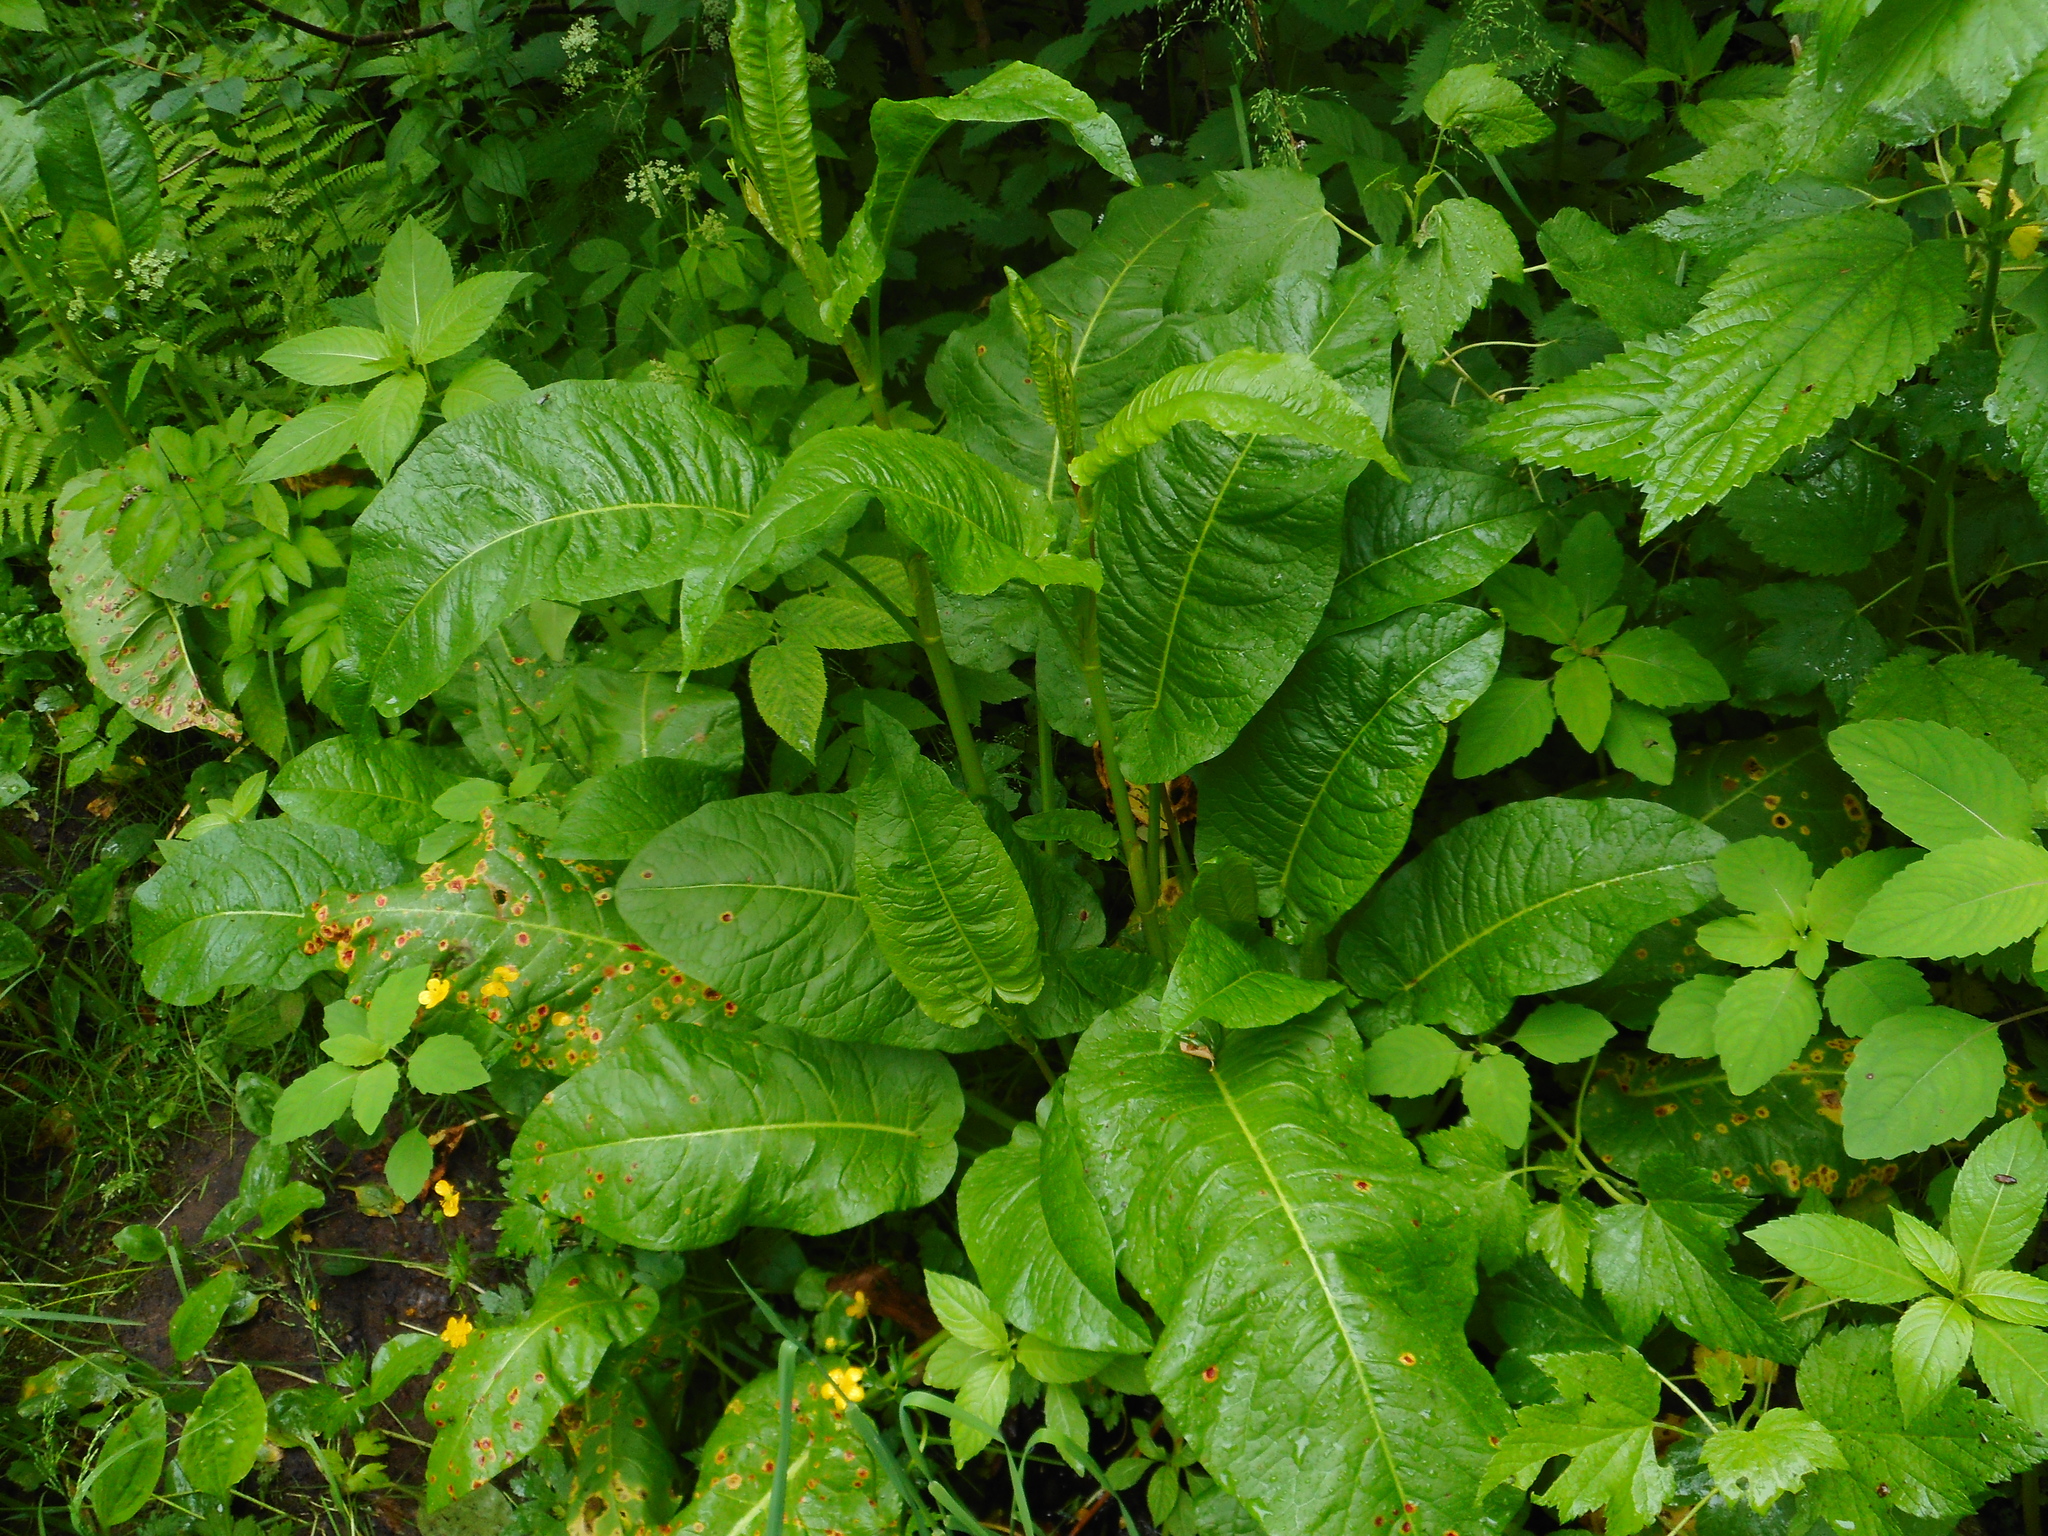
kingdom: Plantae
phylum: Tracheophyta
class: Magnoliopsida
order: Caryophyllales
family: Polygonaceae
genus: Rumex
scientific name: Rumex obtusifolius
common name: Bitter dock
